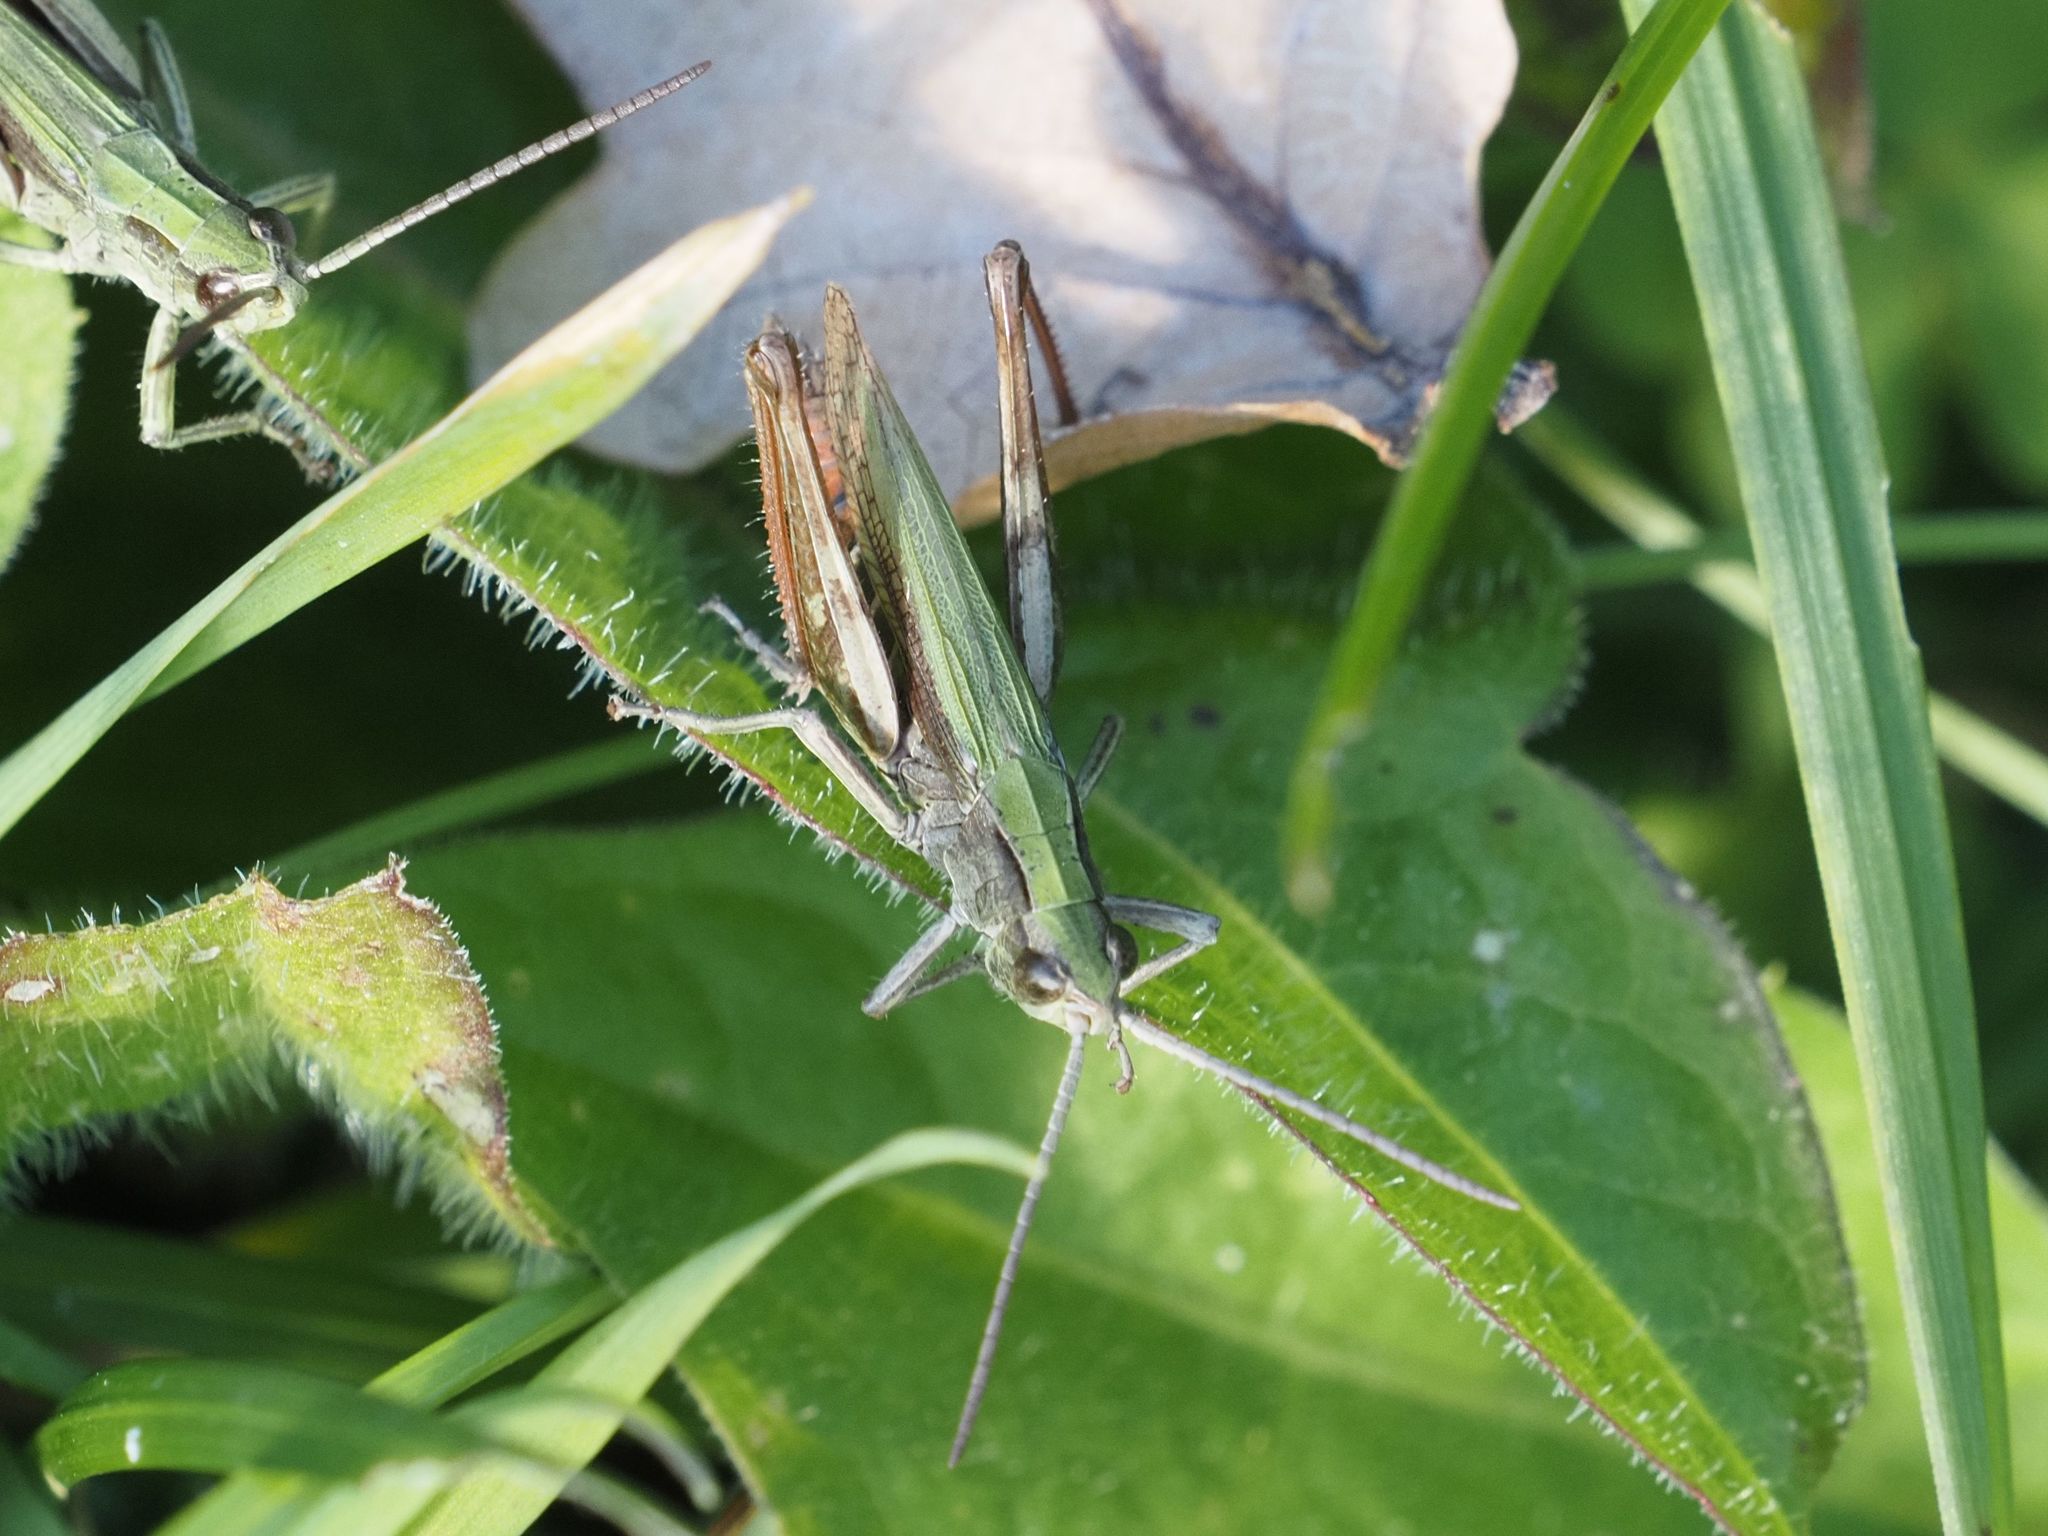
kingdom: Animalia
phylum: Arthropoda
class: Insecta
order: Orthoptera
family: Acrididae
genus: Chorthippus
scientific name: Chorthippus dorsatus
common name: Steppe grasshopper
